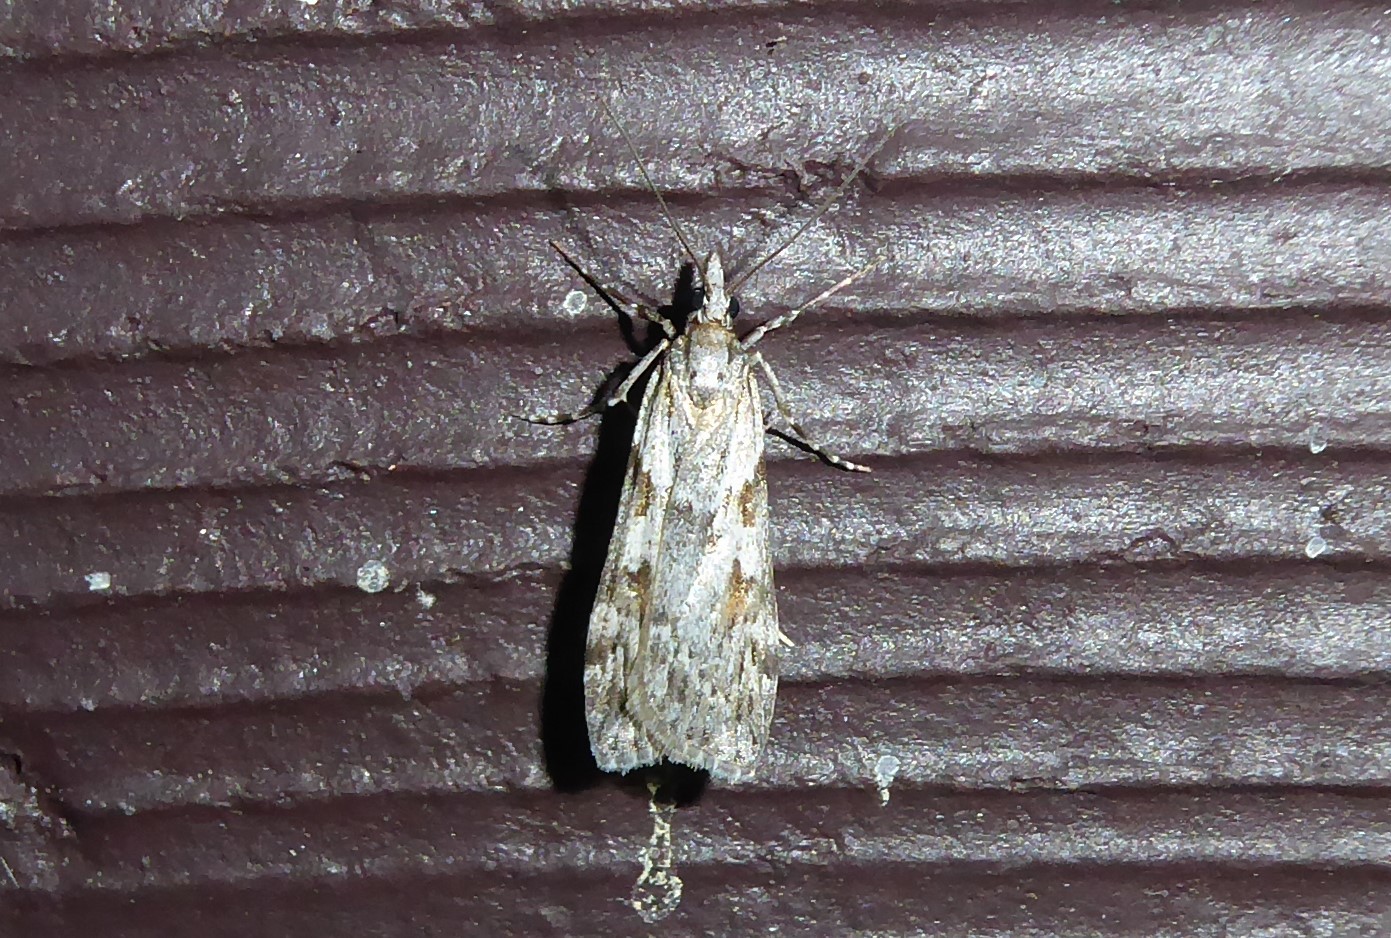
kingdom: Animalia
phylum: Arthropoda
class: Insecta
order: Lepidoptera
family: Crambidae
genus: Scoparia
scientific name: Scoparia halopis
